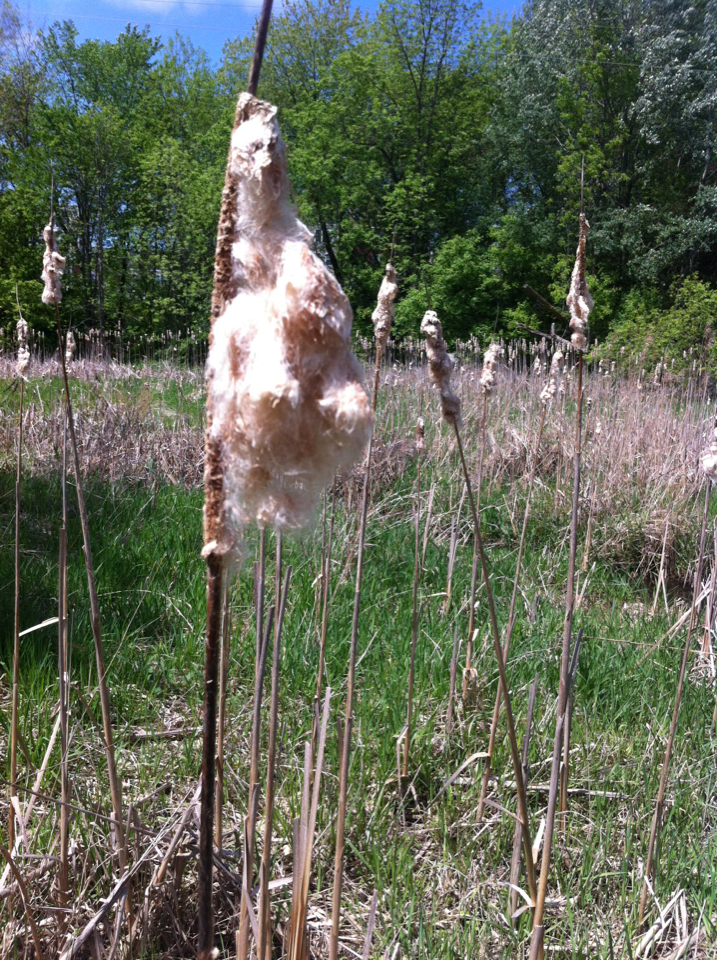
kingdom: Plantae
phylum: Tracheophyta
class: Liliopsida
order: Poales
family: Typhaceae
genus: Typha
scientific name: Typha angustifolia
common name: Lesser bulrush
